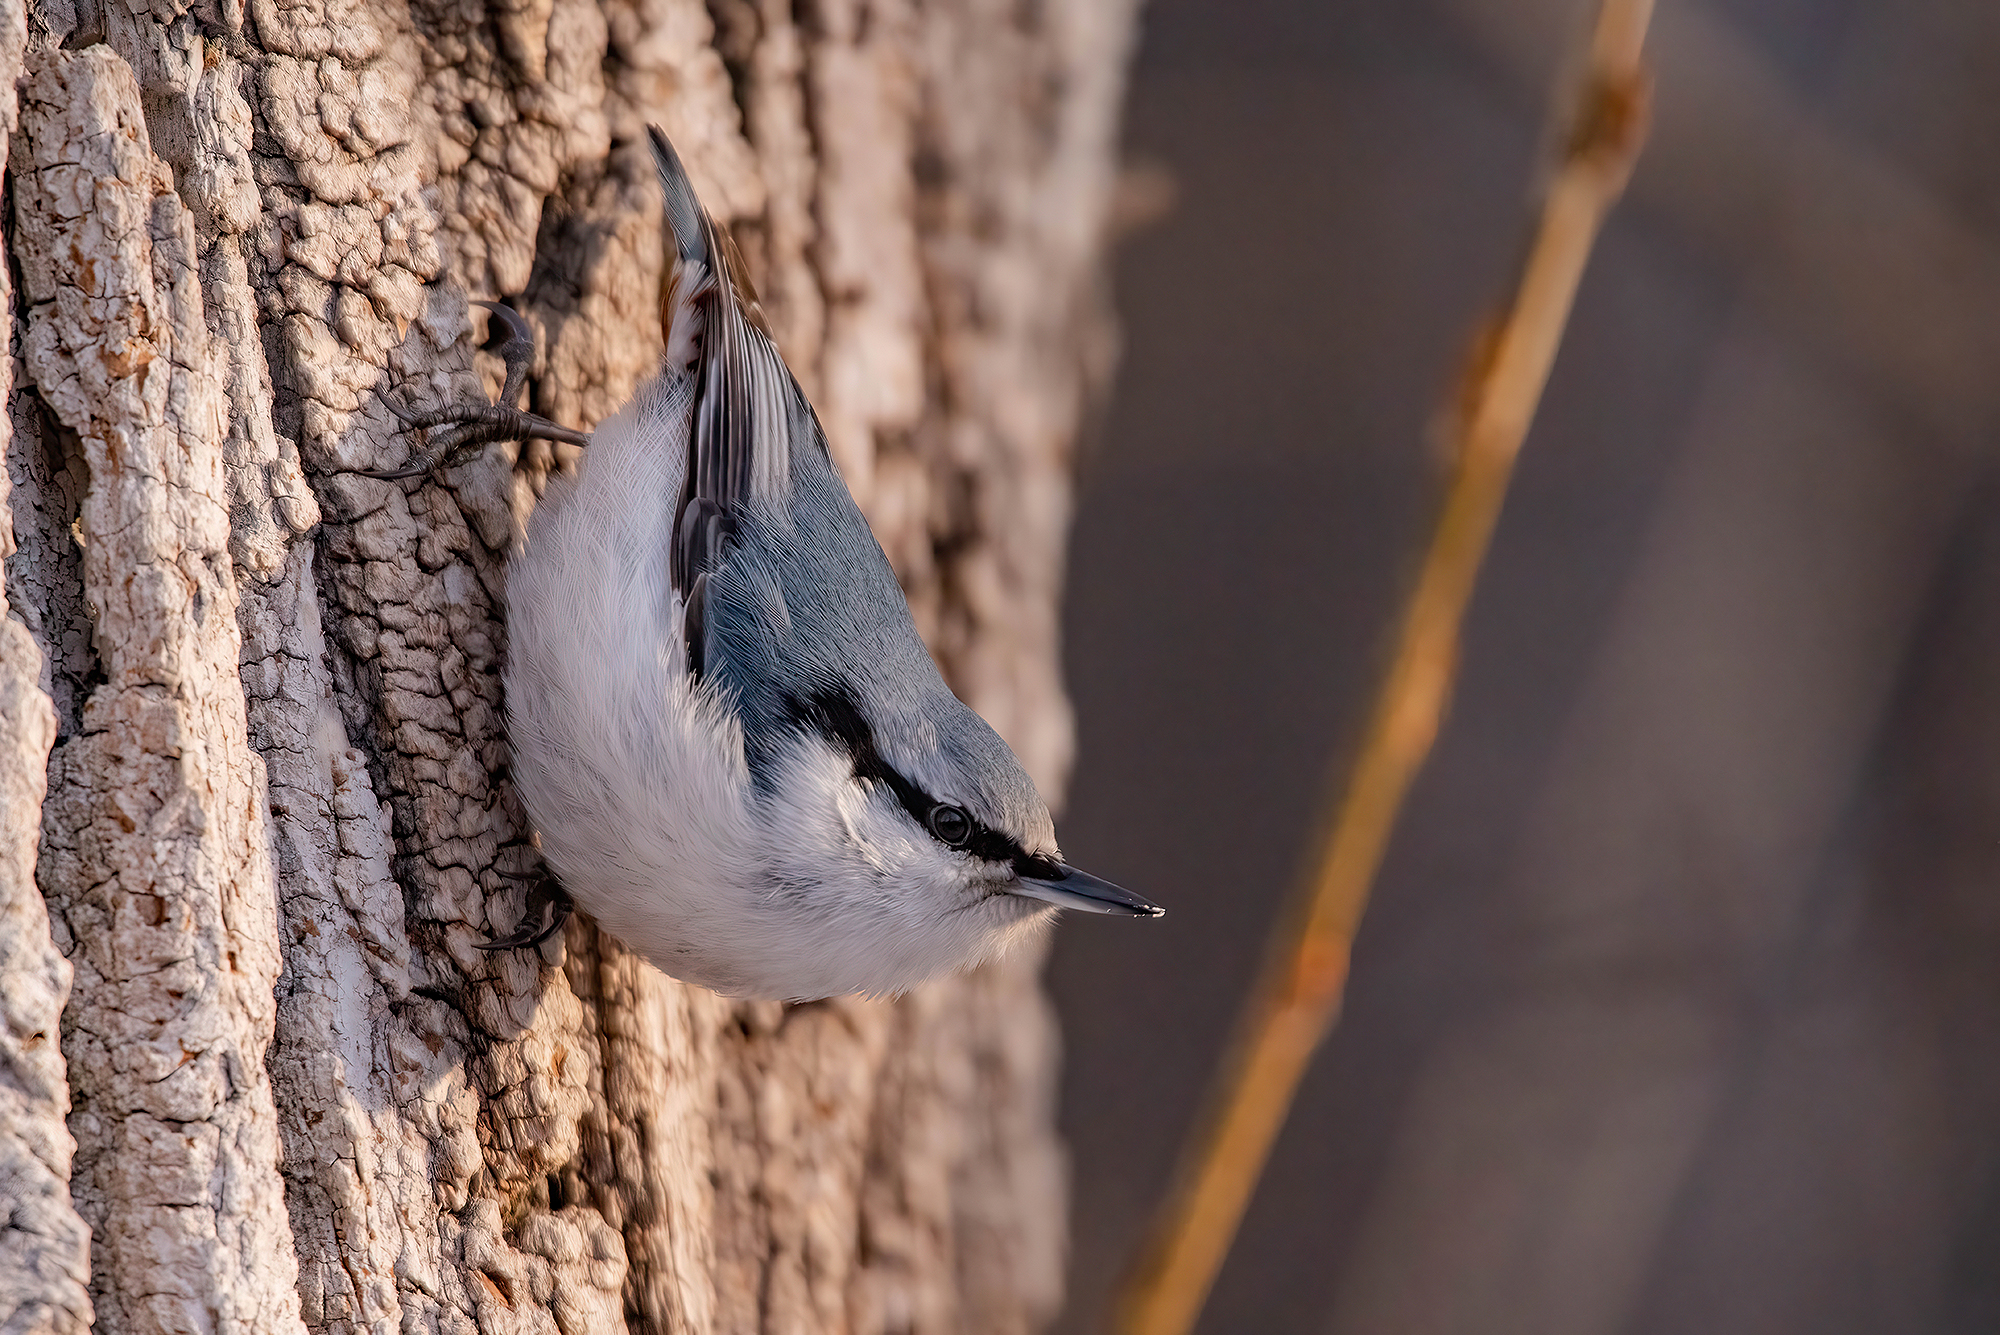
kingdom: Animalia
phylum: Chordata
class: Aves
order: Passeriformes
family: Sittidae
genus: Sitta
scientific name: Sitta europaea
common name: Eurasian nuthatch
